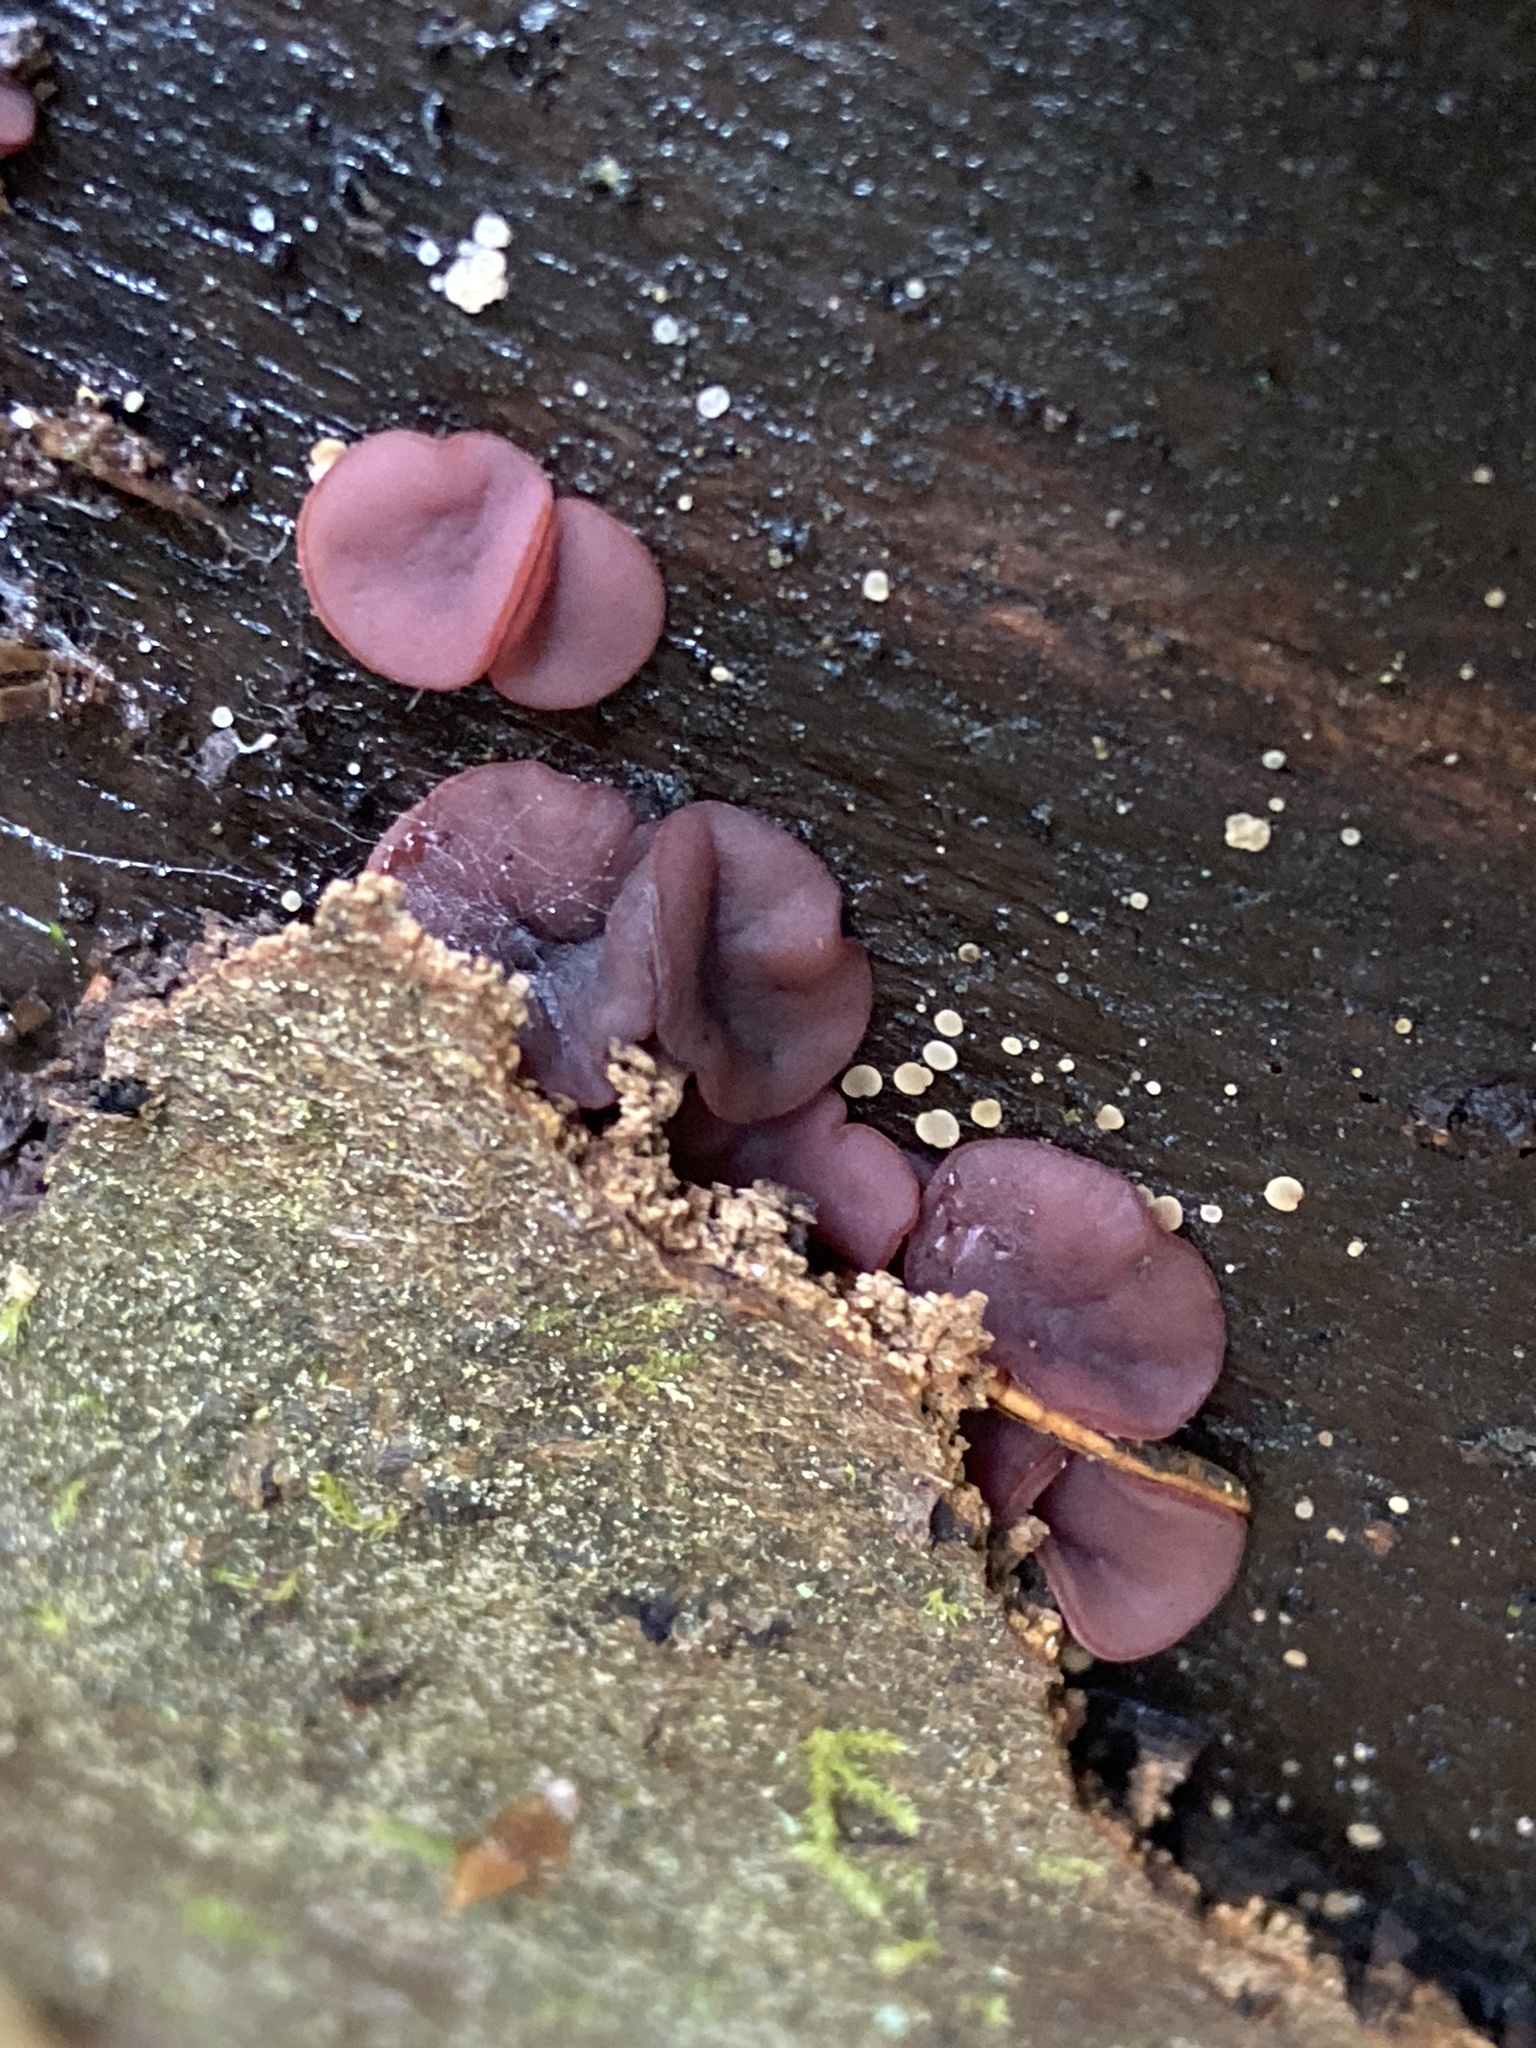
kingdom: Fungi
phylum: Ascomycota
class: Leotiomycetes
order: Helotiales
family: Gelatinodiscaceae
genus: Ascocoryne
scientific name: Ascocoryne cylichnium
